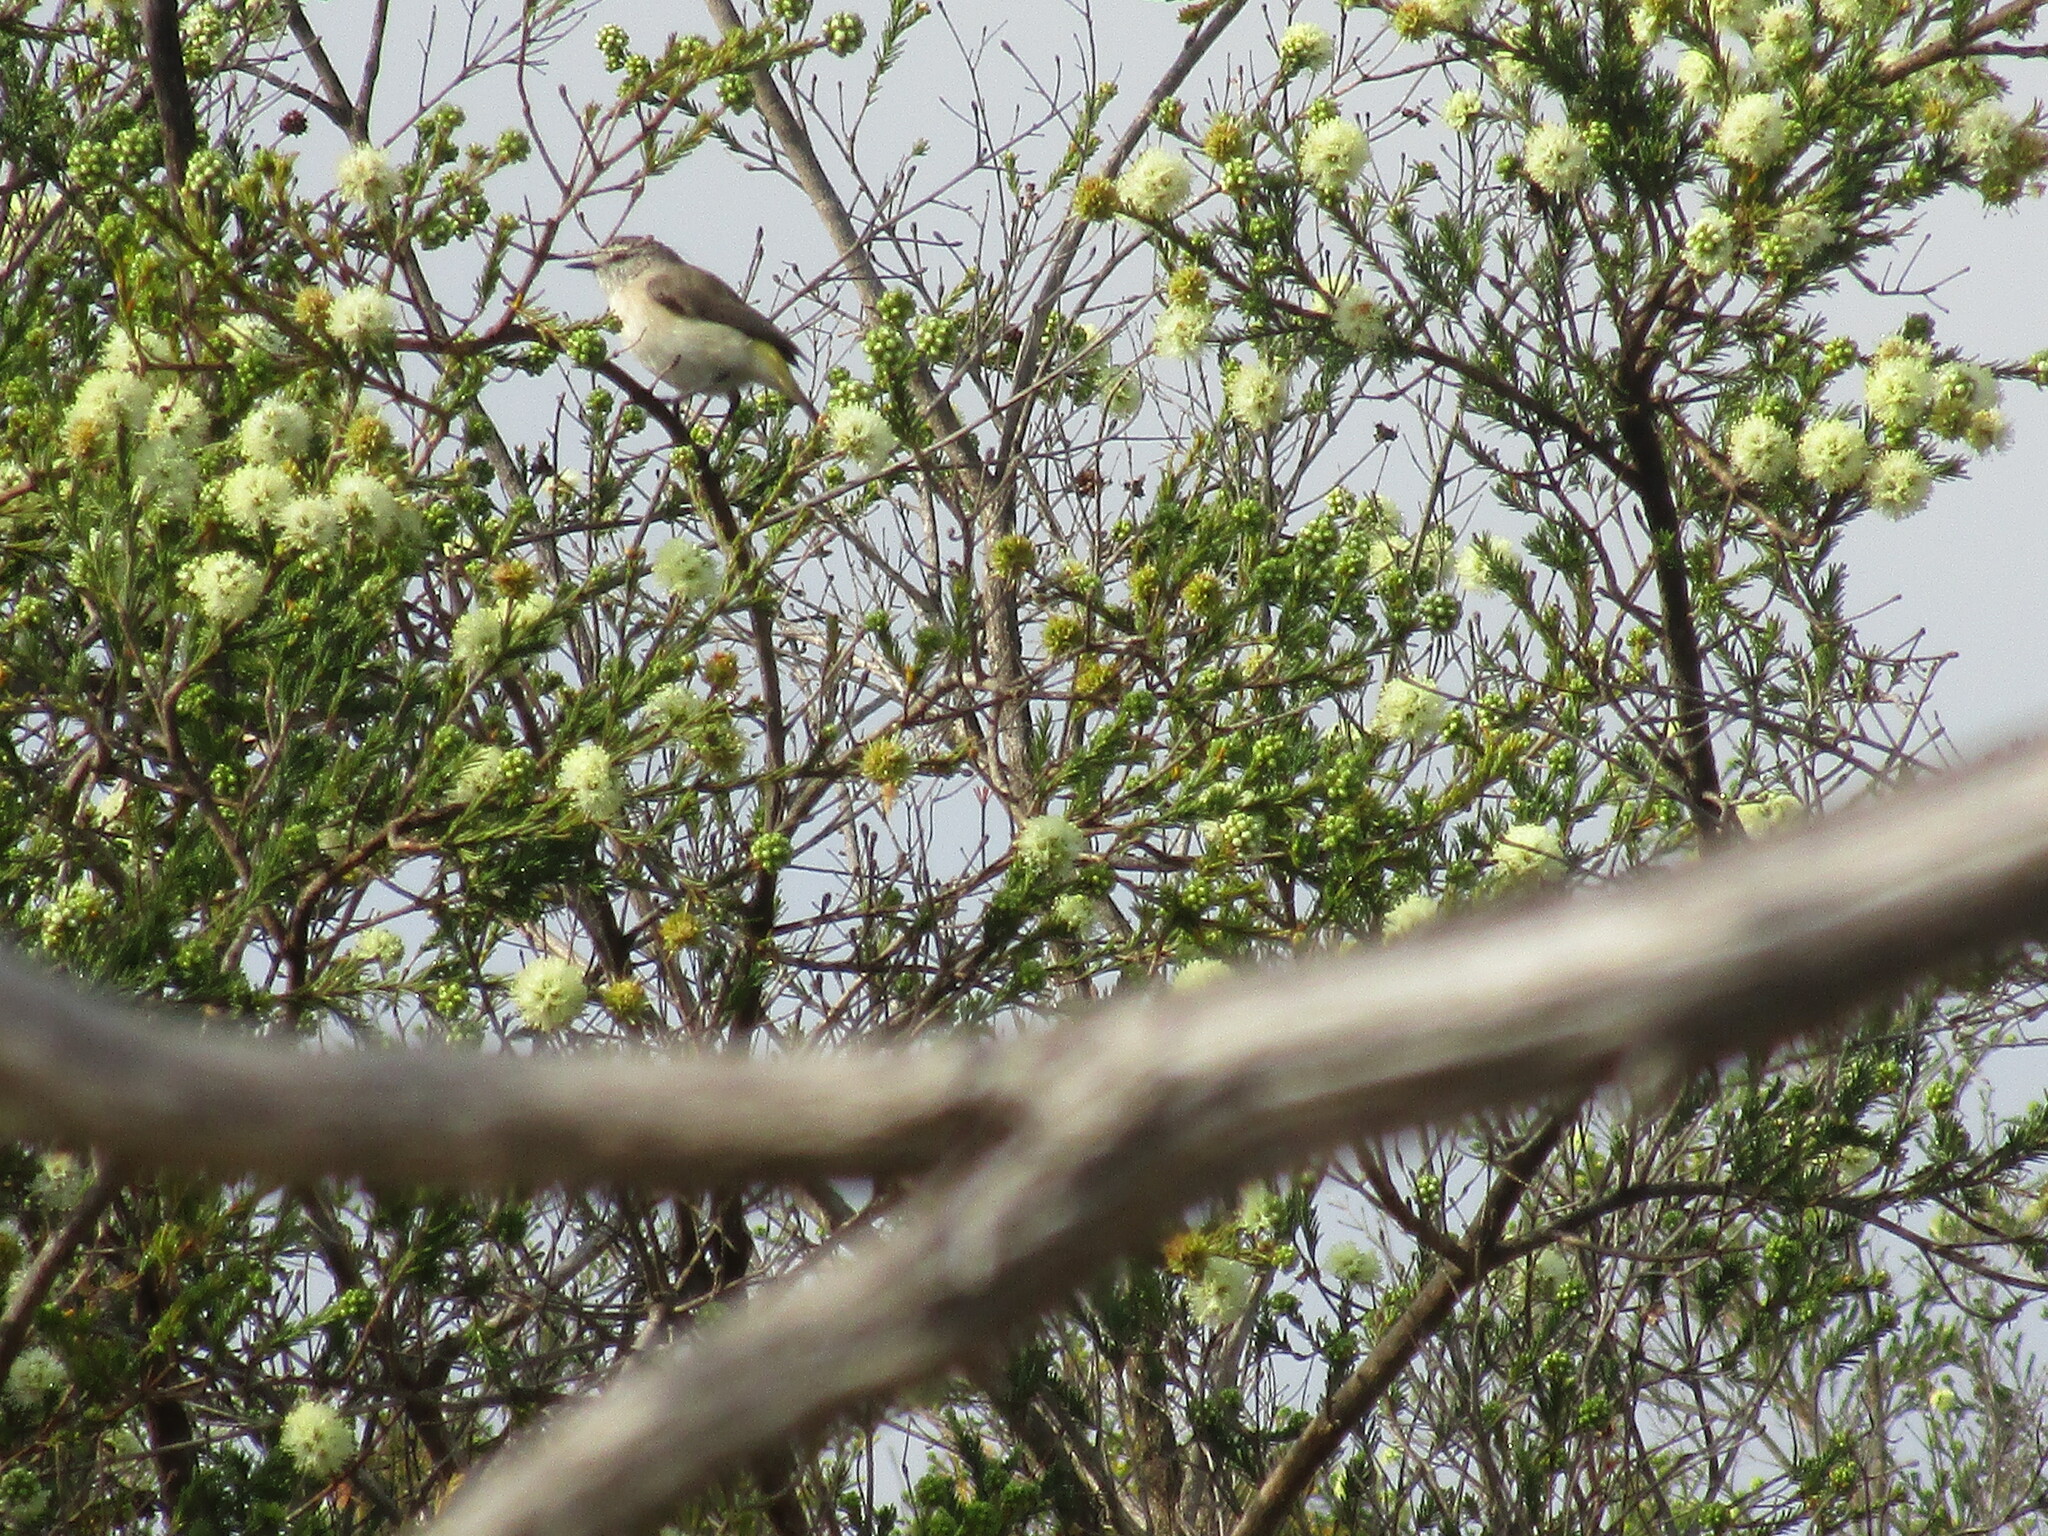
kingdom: Animalia
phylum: Chordata
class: Aves
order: Passeriformes
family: Acanthizidae
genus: Acanthiza
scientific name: Acanthiza chrysorrhoa
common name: Yellow-rumped thornbill
